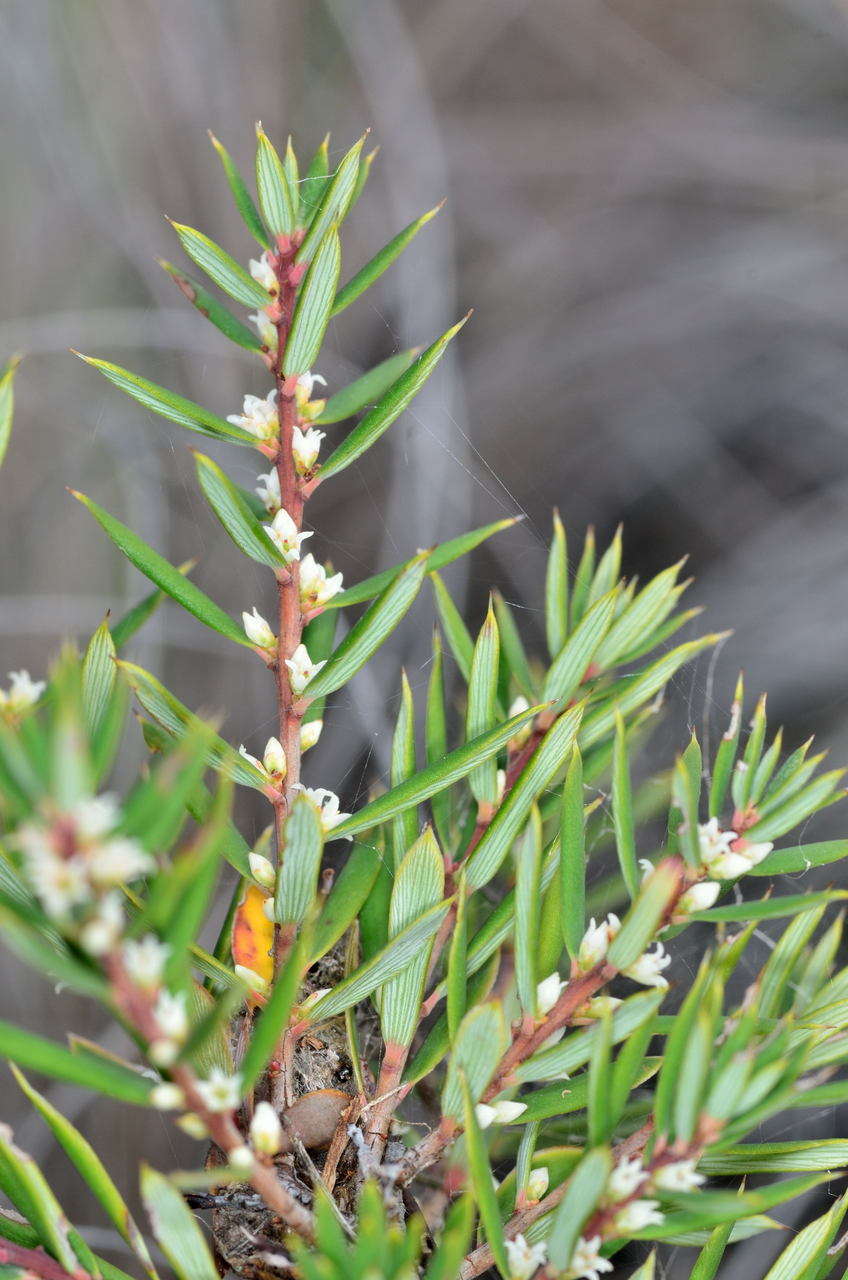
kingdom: Plantae
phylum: Tracheophyta
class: Magnoliopsida
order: Ericales
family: Ericaceae
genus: Monotoca
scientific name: Monotoca scoparia
